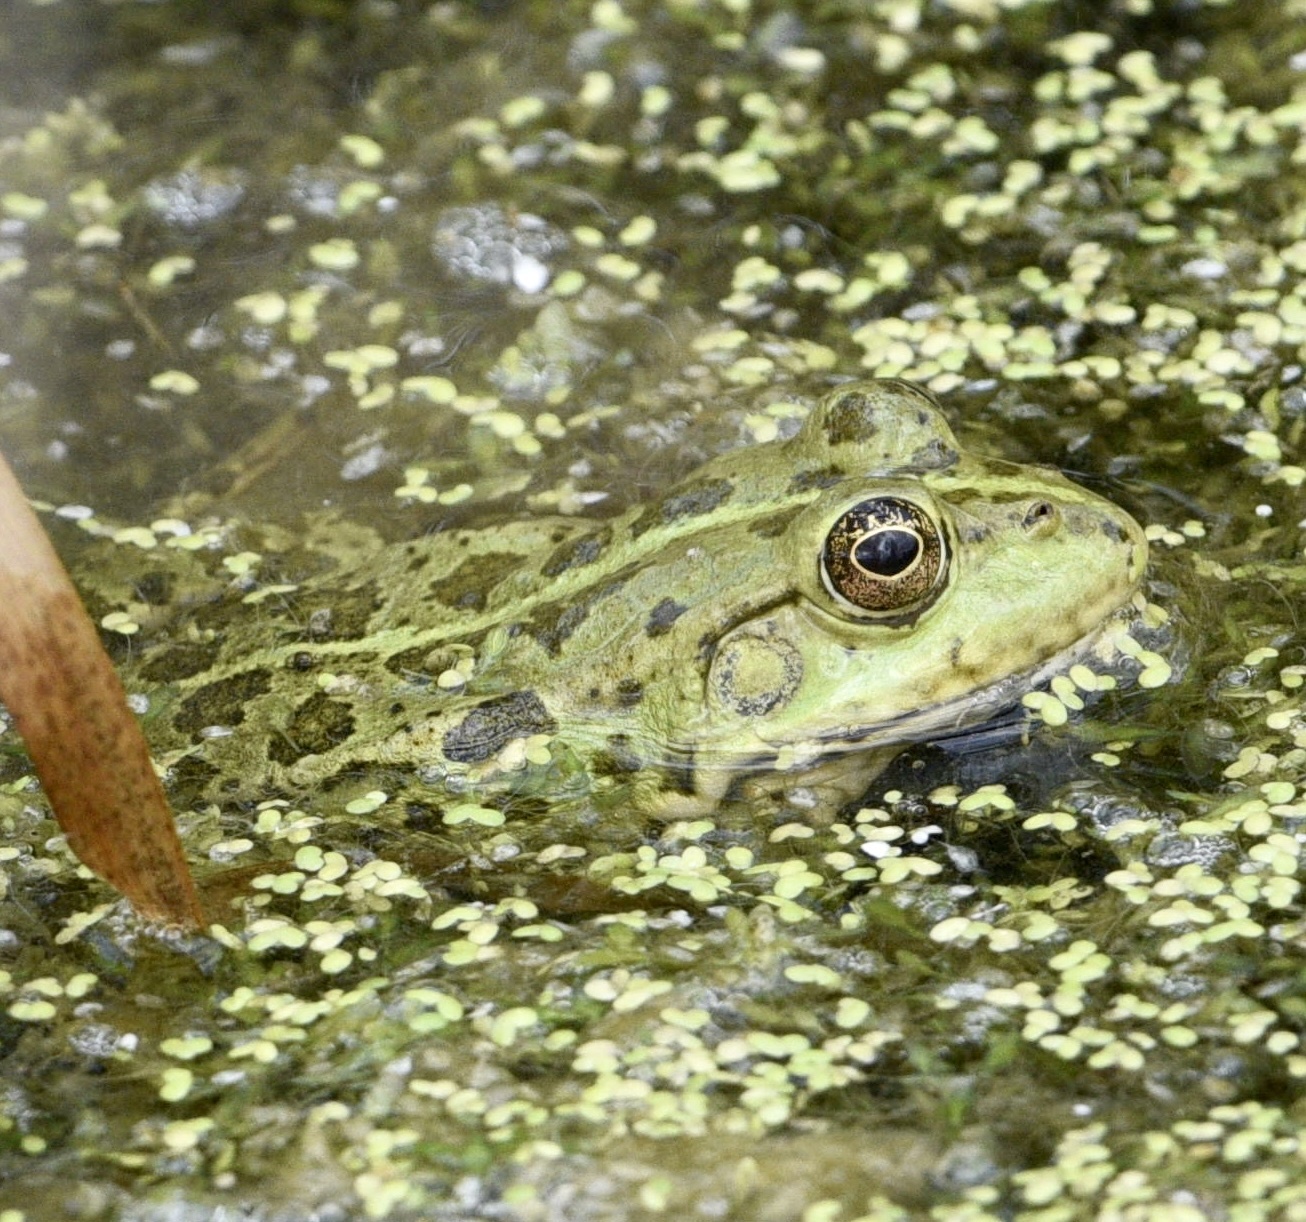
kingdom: Animalia
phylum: Chordata
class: Amphibia
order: Anura
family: Ranidae
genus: Pelophylax
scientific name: Pelophylax ridibundus
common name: Marsh frog
